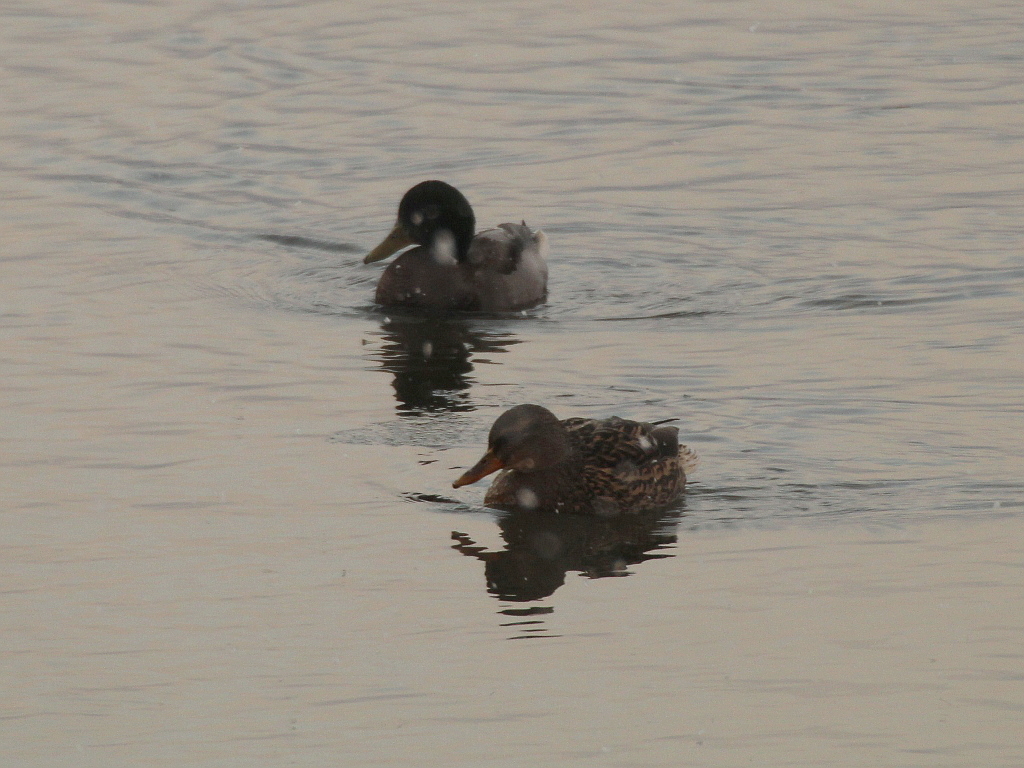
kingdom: Animalia
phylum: Chordata
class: Aves
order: Anseriformes
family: Anatidae
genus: Anas
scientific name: Anas platyrhynchos
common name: Mallard
